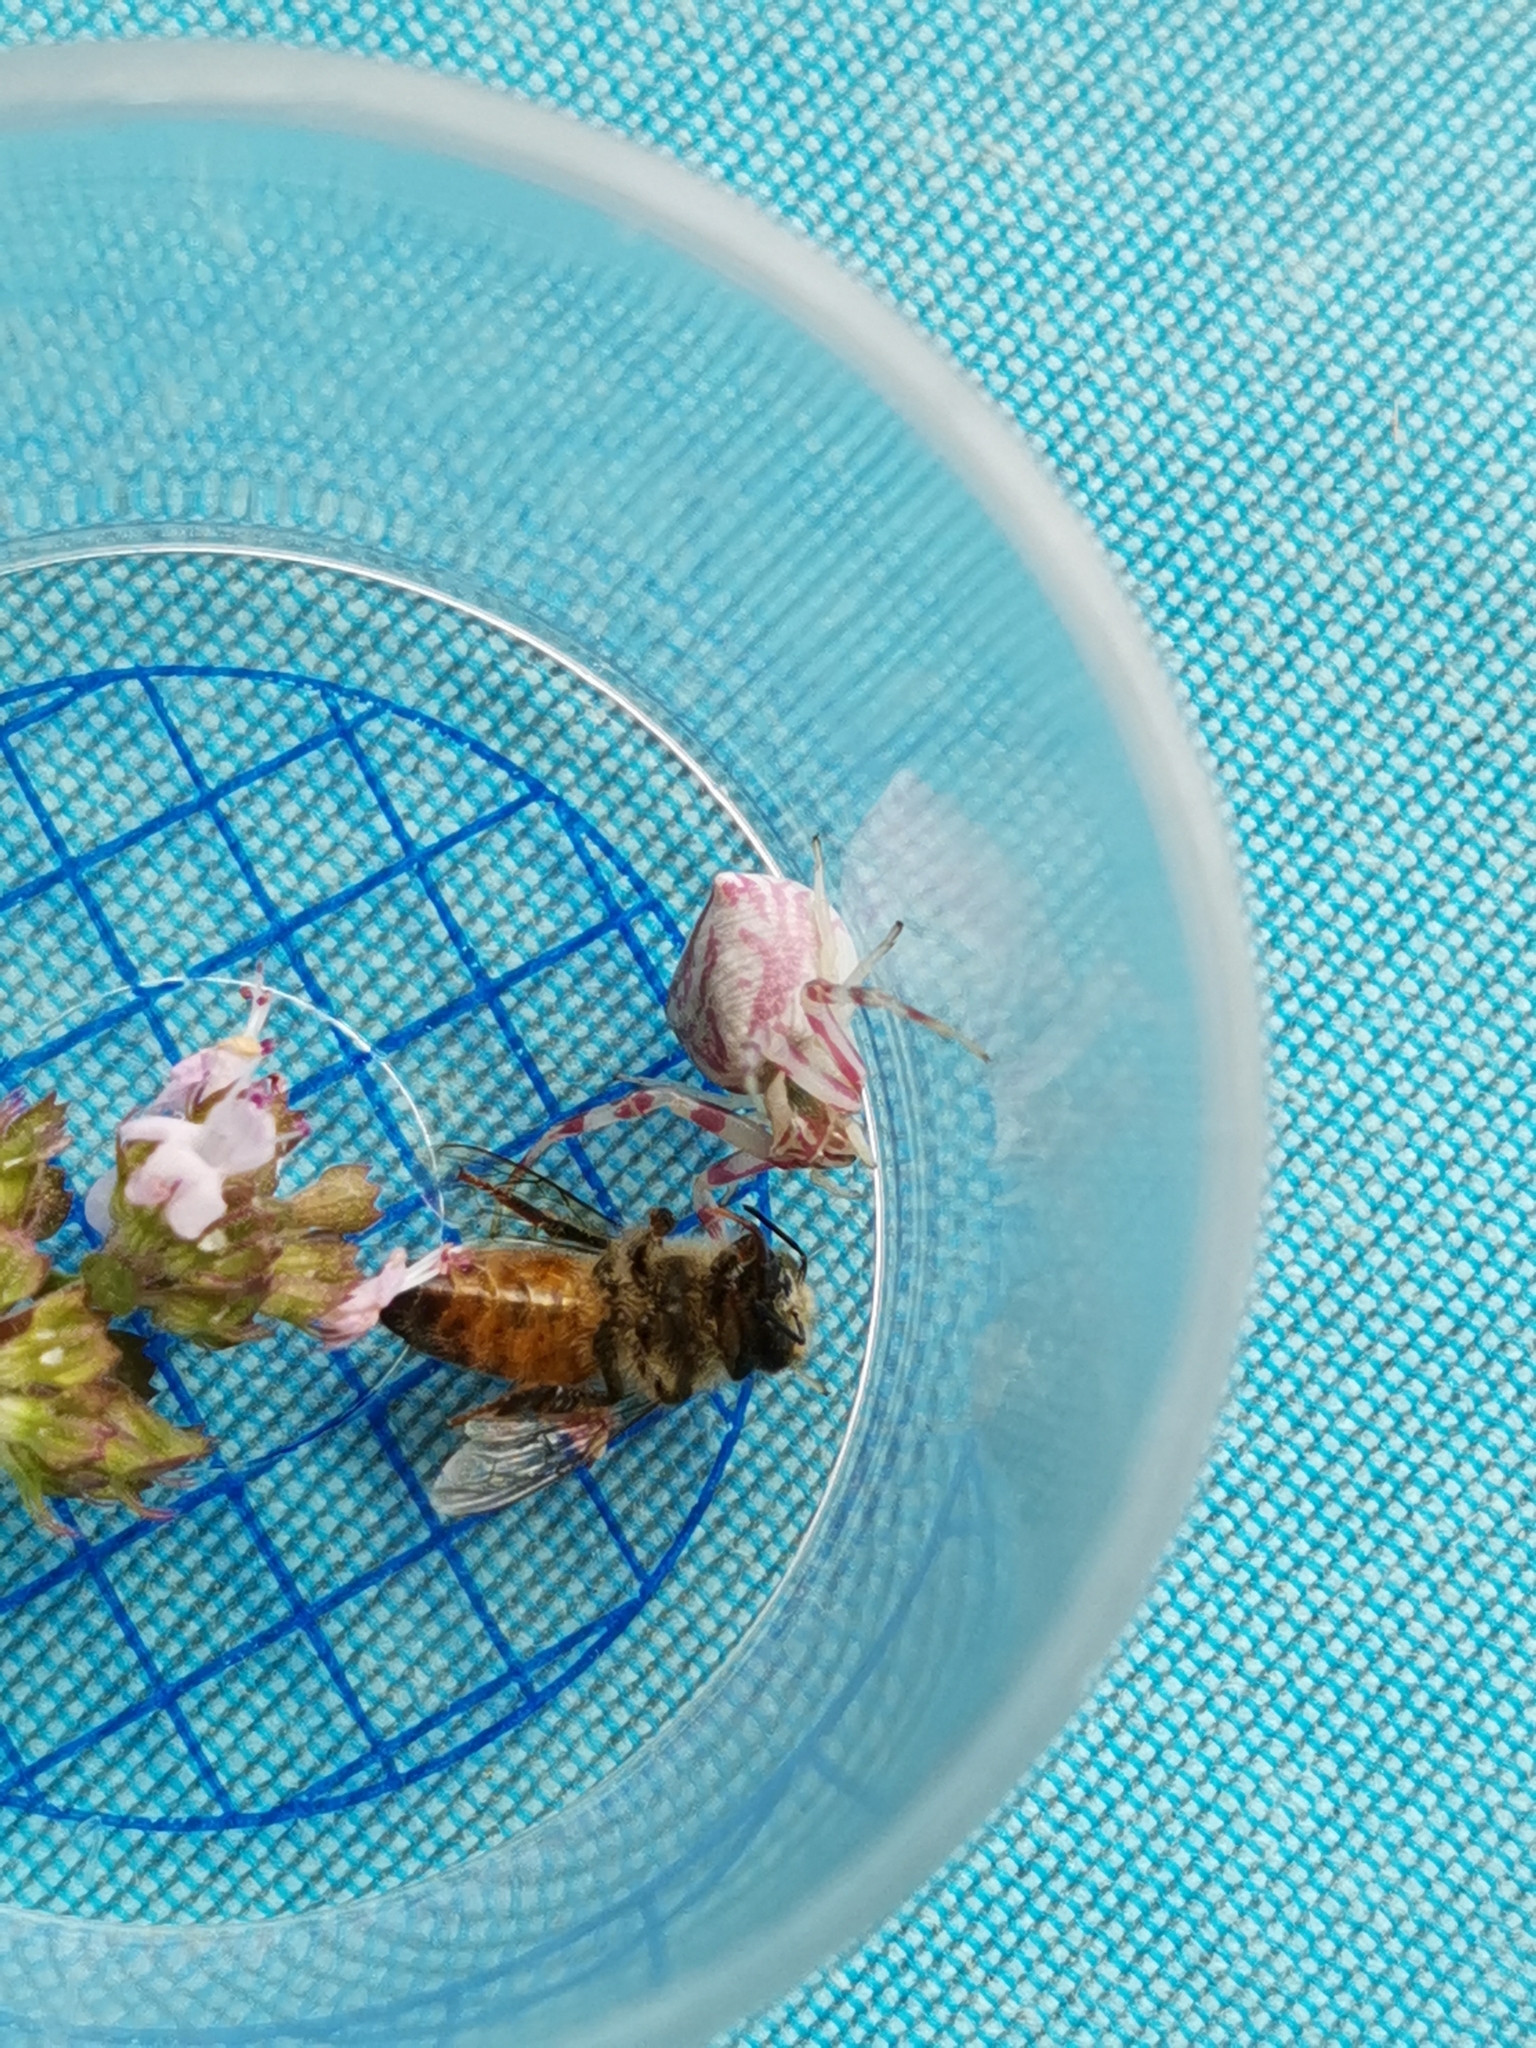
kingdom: Animalia
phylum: Arthropoda
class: Arachnida
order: Araneae
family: Thomisidae
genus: Thomisus
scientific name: Thomisus onustus
